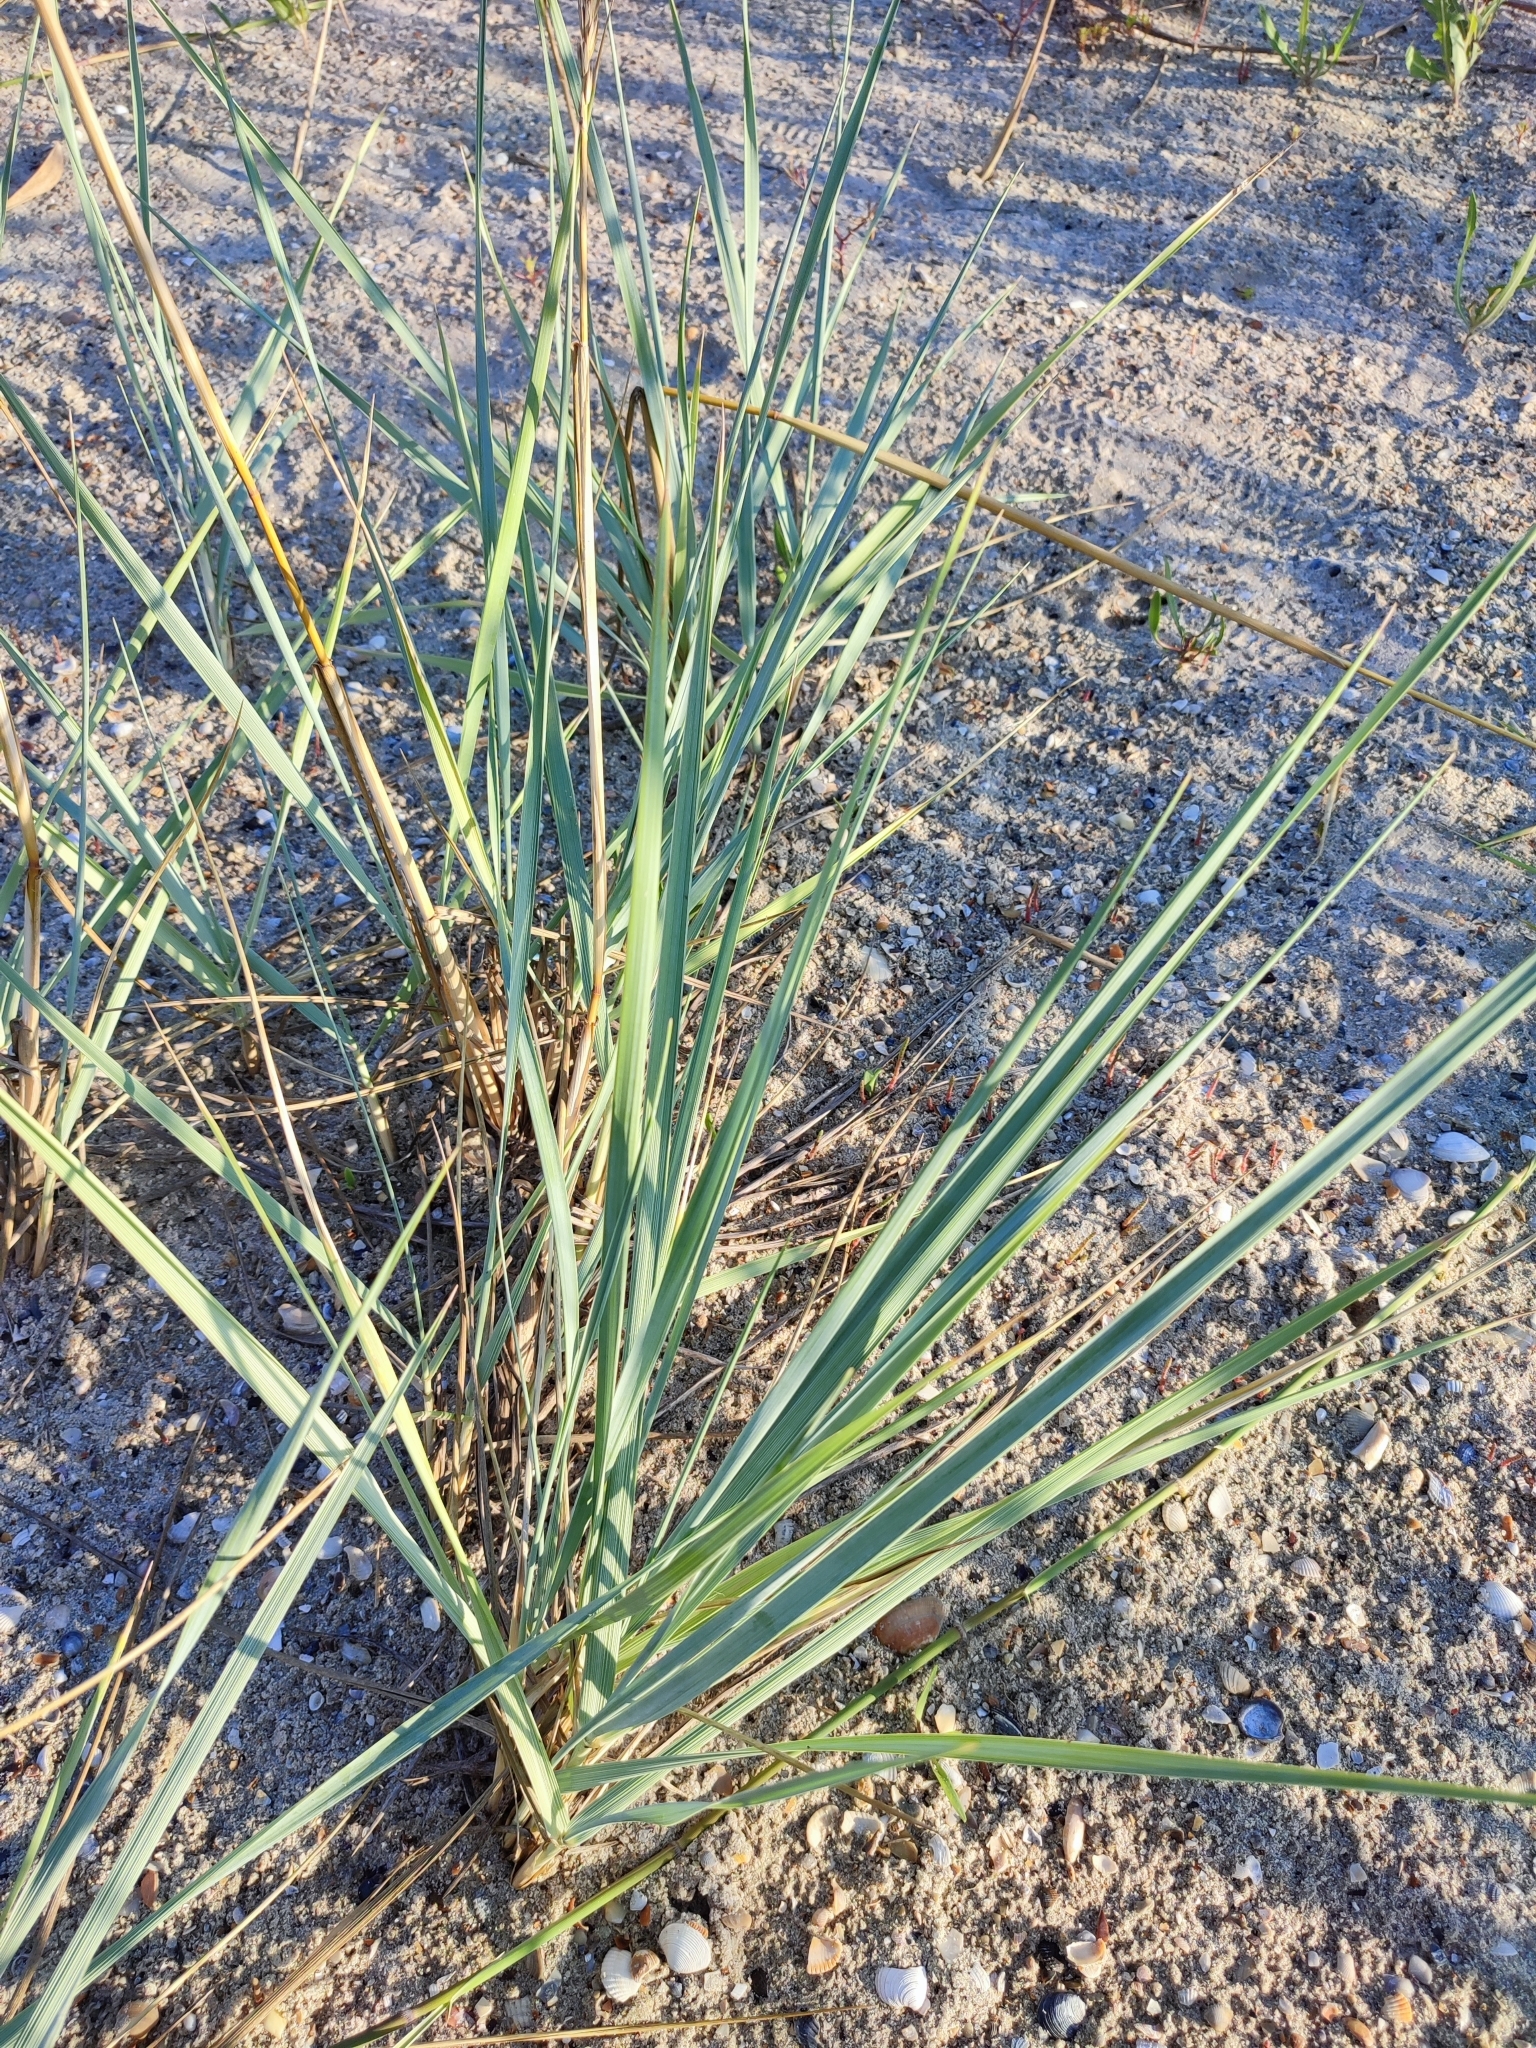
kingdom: Plantae
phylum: Tracheophyta
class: Liliopsida
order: Poales
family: Poaceae
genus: Leymus
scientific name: Leymus racemosus
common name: Mammoth wildrye
